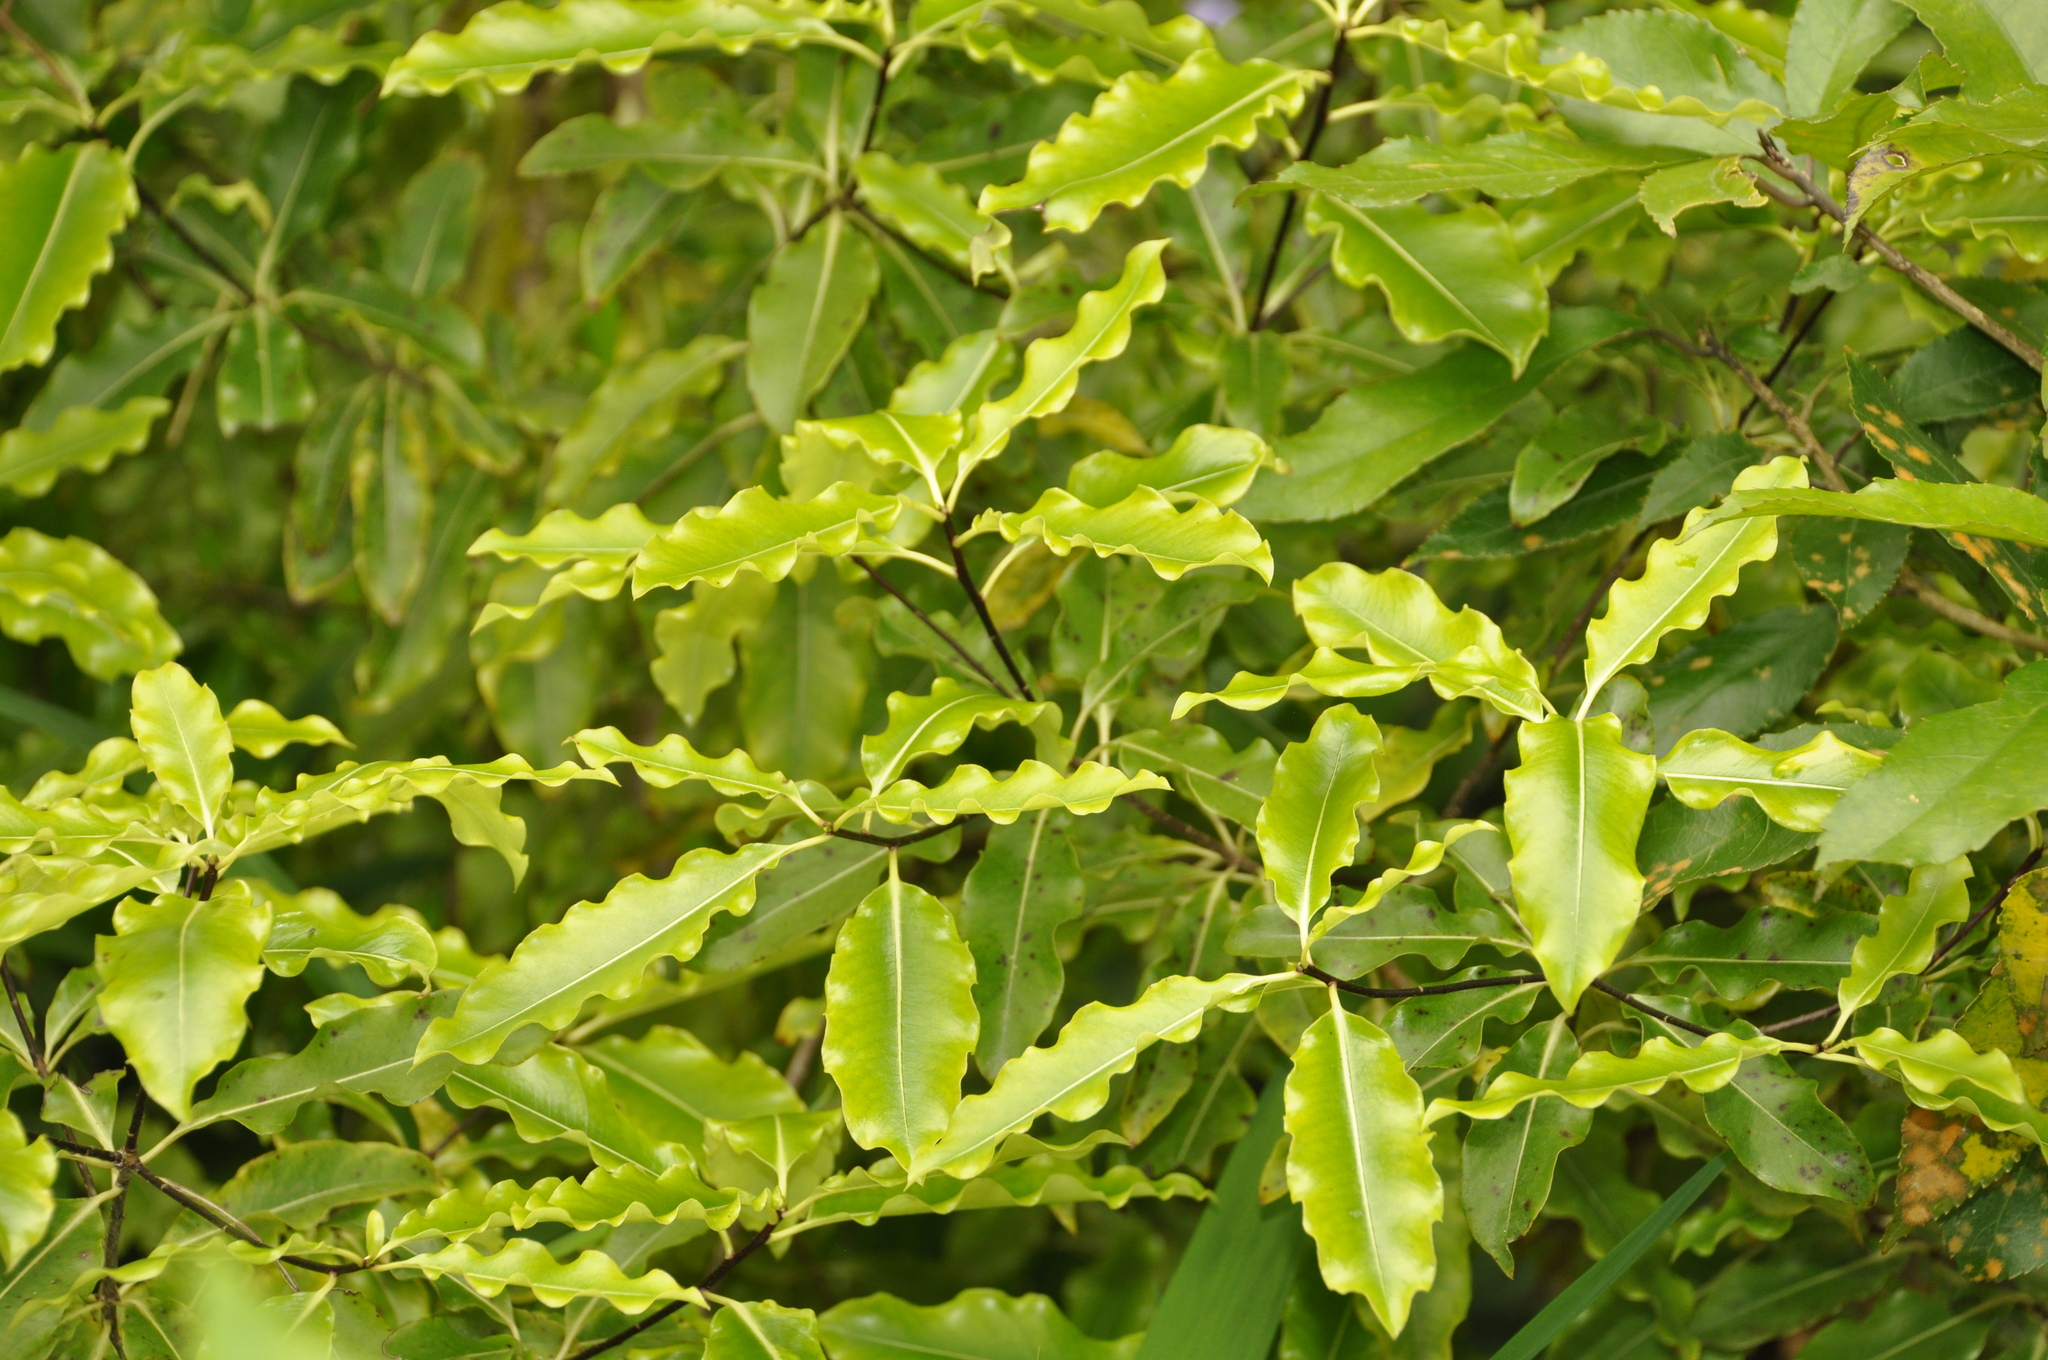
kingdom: Plantae
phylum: Tracheophyta
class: Magnoliopsida
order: Apiales
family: Pittosporaceae
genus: Pittosporum
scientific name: Pittosporum eugenioides
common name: Lemonwood
